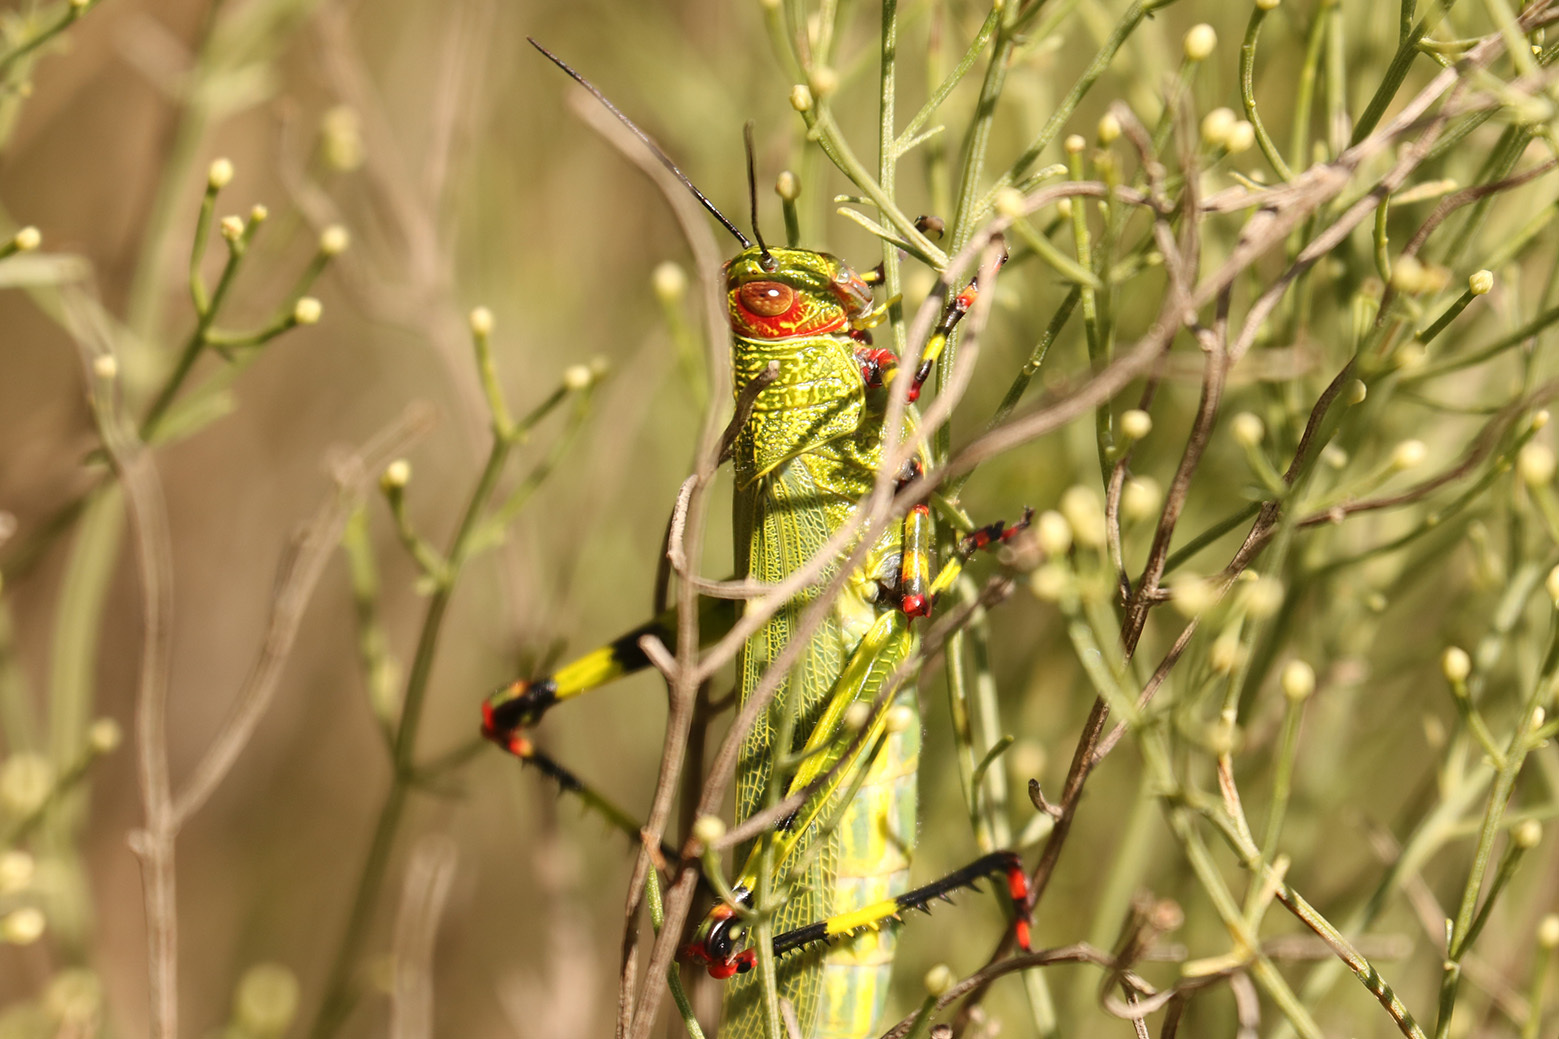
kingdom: Animalia
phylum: Arthropoda
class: Insecta
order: Orthoptera
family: Romaleidae
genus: Zoniopoda
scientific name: Zoniopoda tarsata
